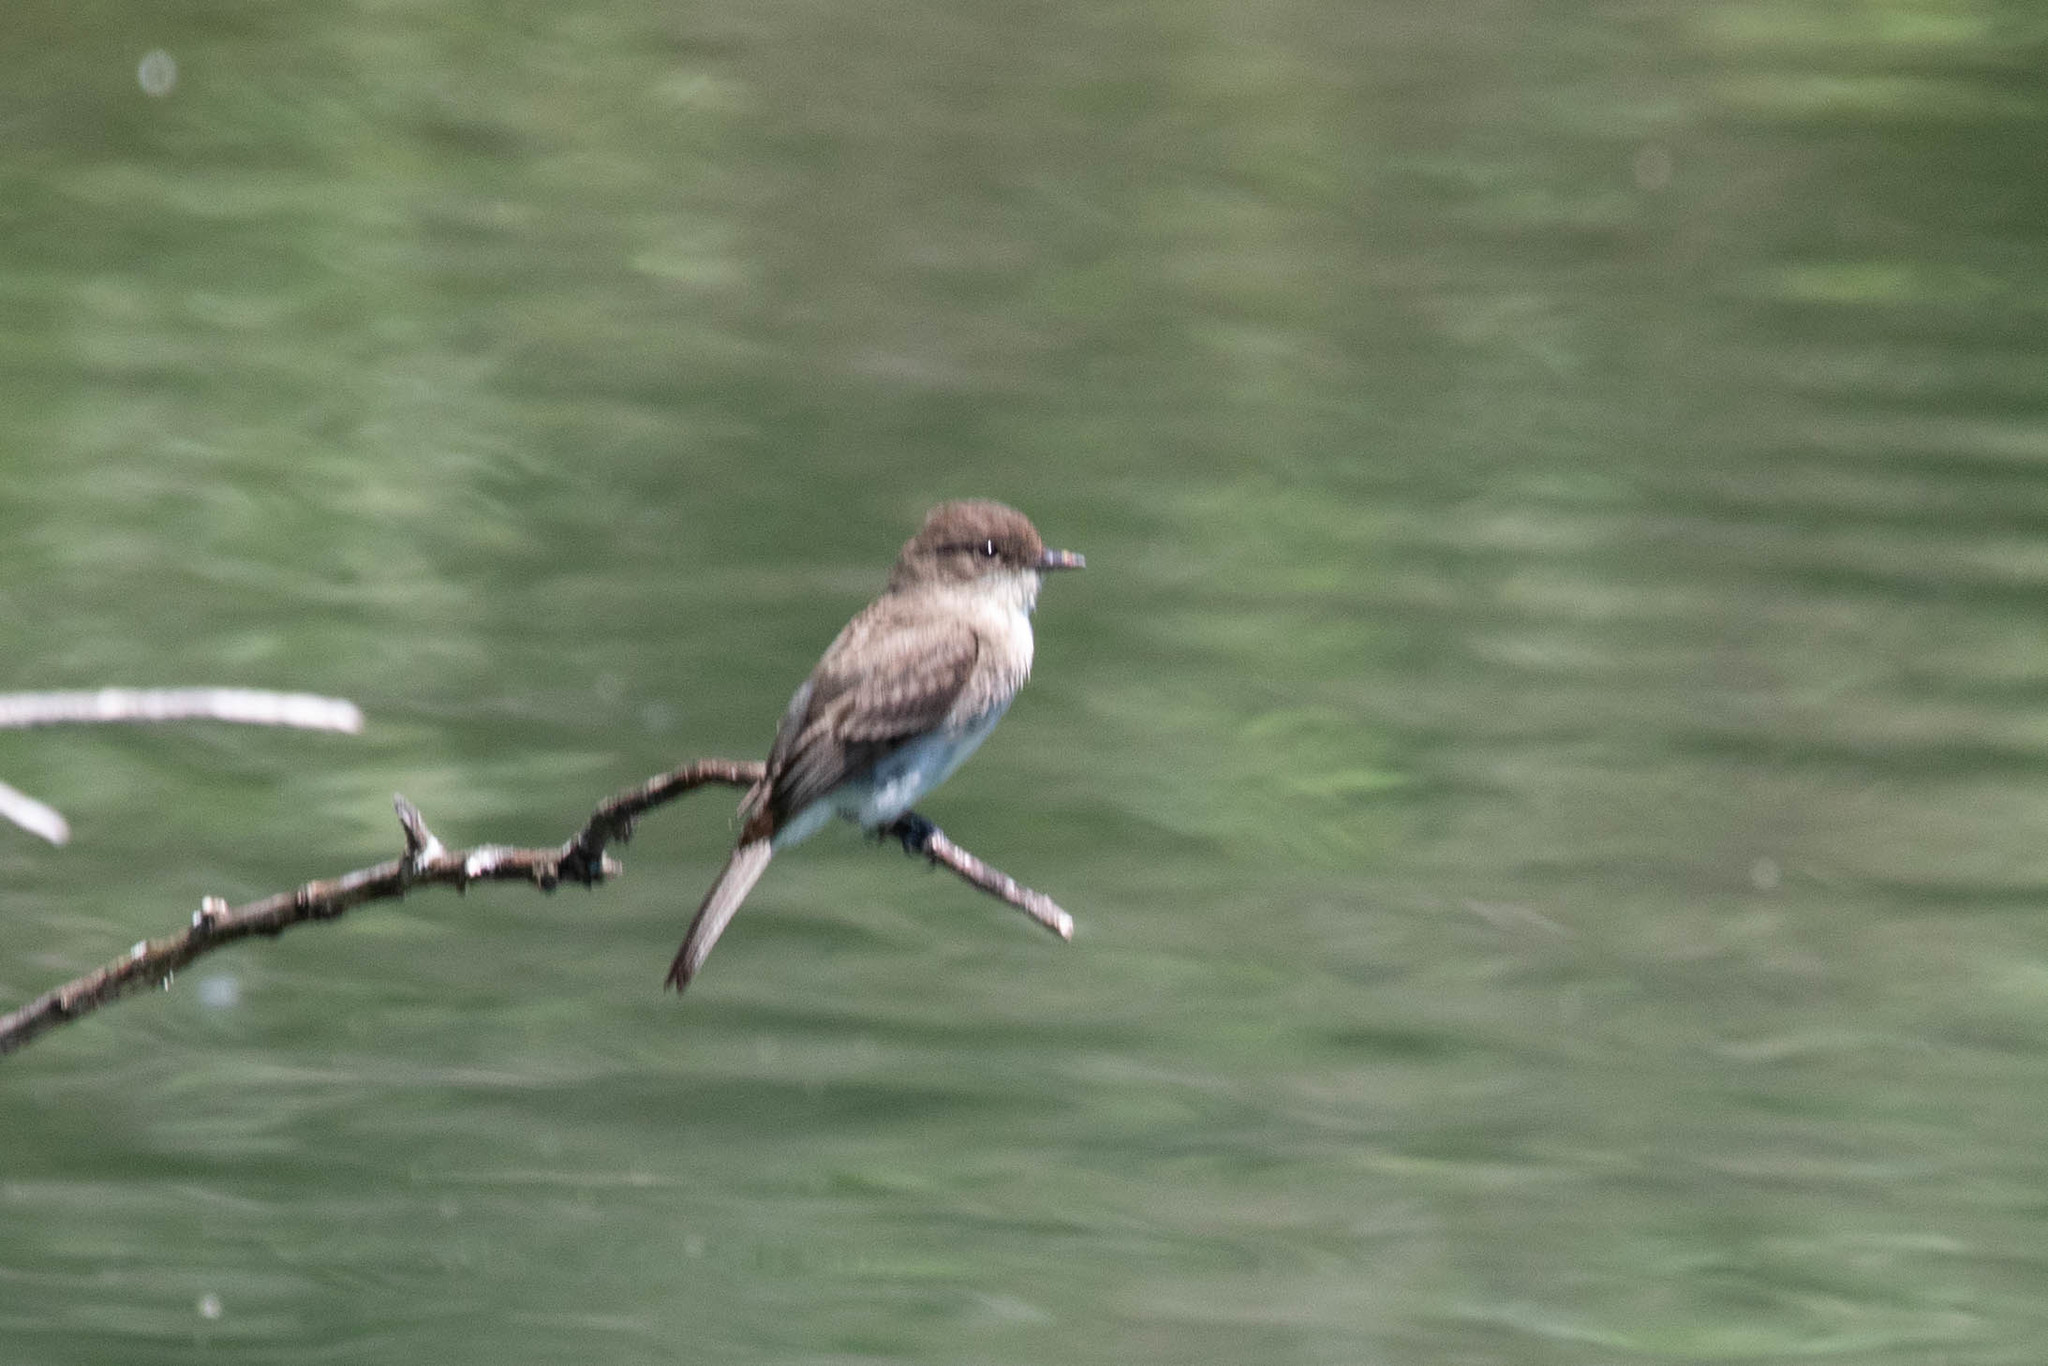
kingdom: Animalia
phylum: Chordata
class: Aves
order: Passeriformes
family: Tyrannidae
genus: Sayornis
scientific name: Sayornis phoebe
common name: Eastern phoebe
